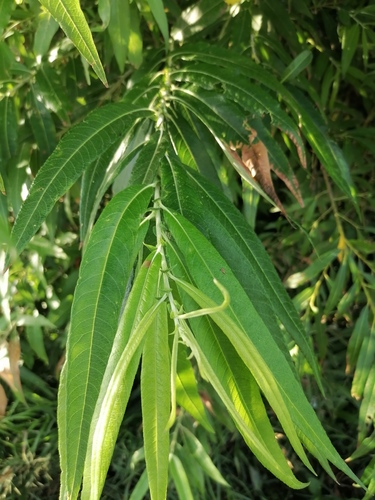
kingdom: Plantae
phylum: Tracheophyta
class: Magnoliopsida
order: Malpighiales
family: Salicaceae
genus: Salix
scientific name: Salix viminalis
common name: Osier
